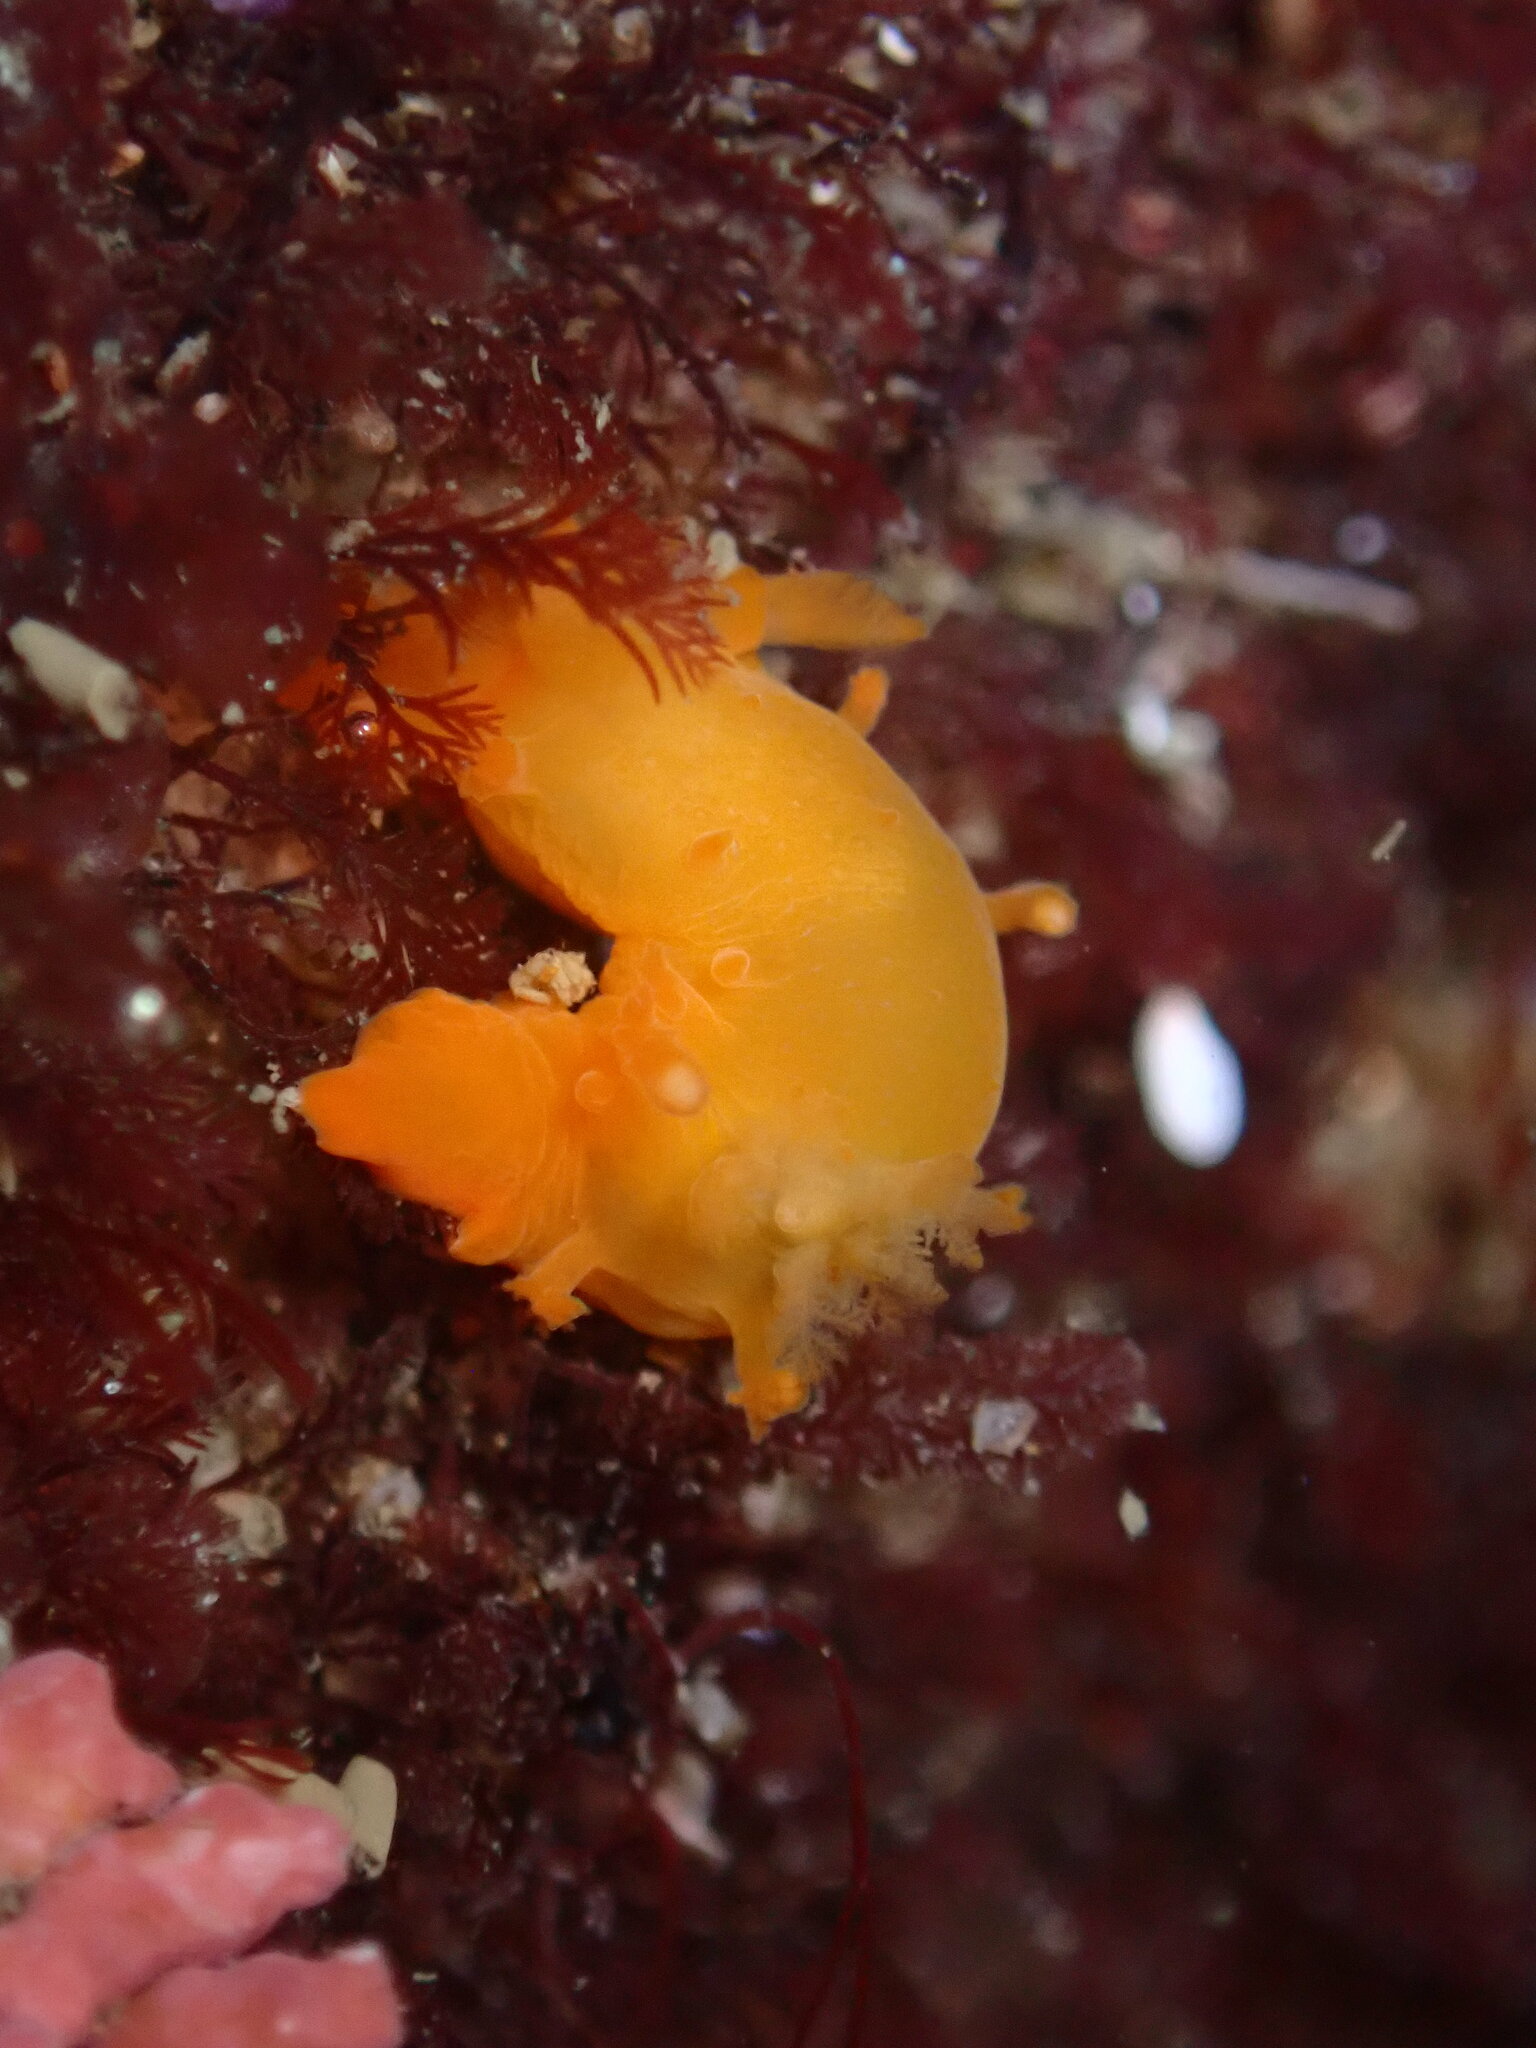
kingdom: Animalia
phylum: Mollusca
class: Gastropoda
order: Nudibranchia
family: Polyceridae
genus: Triopha
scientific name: Triopha maculata
